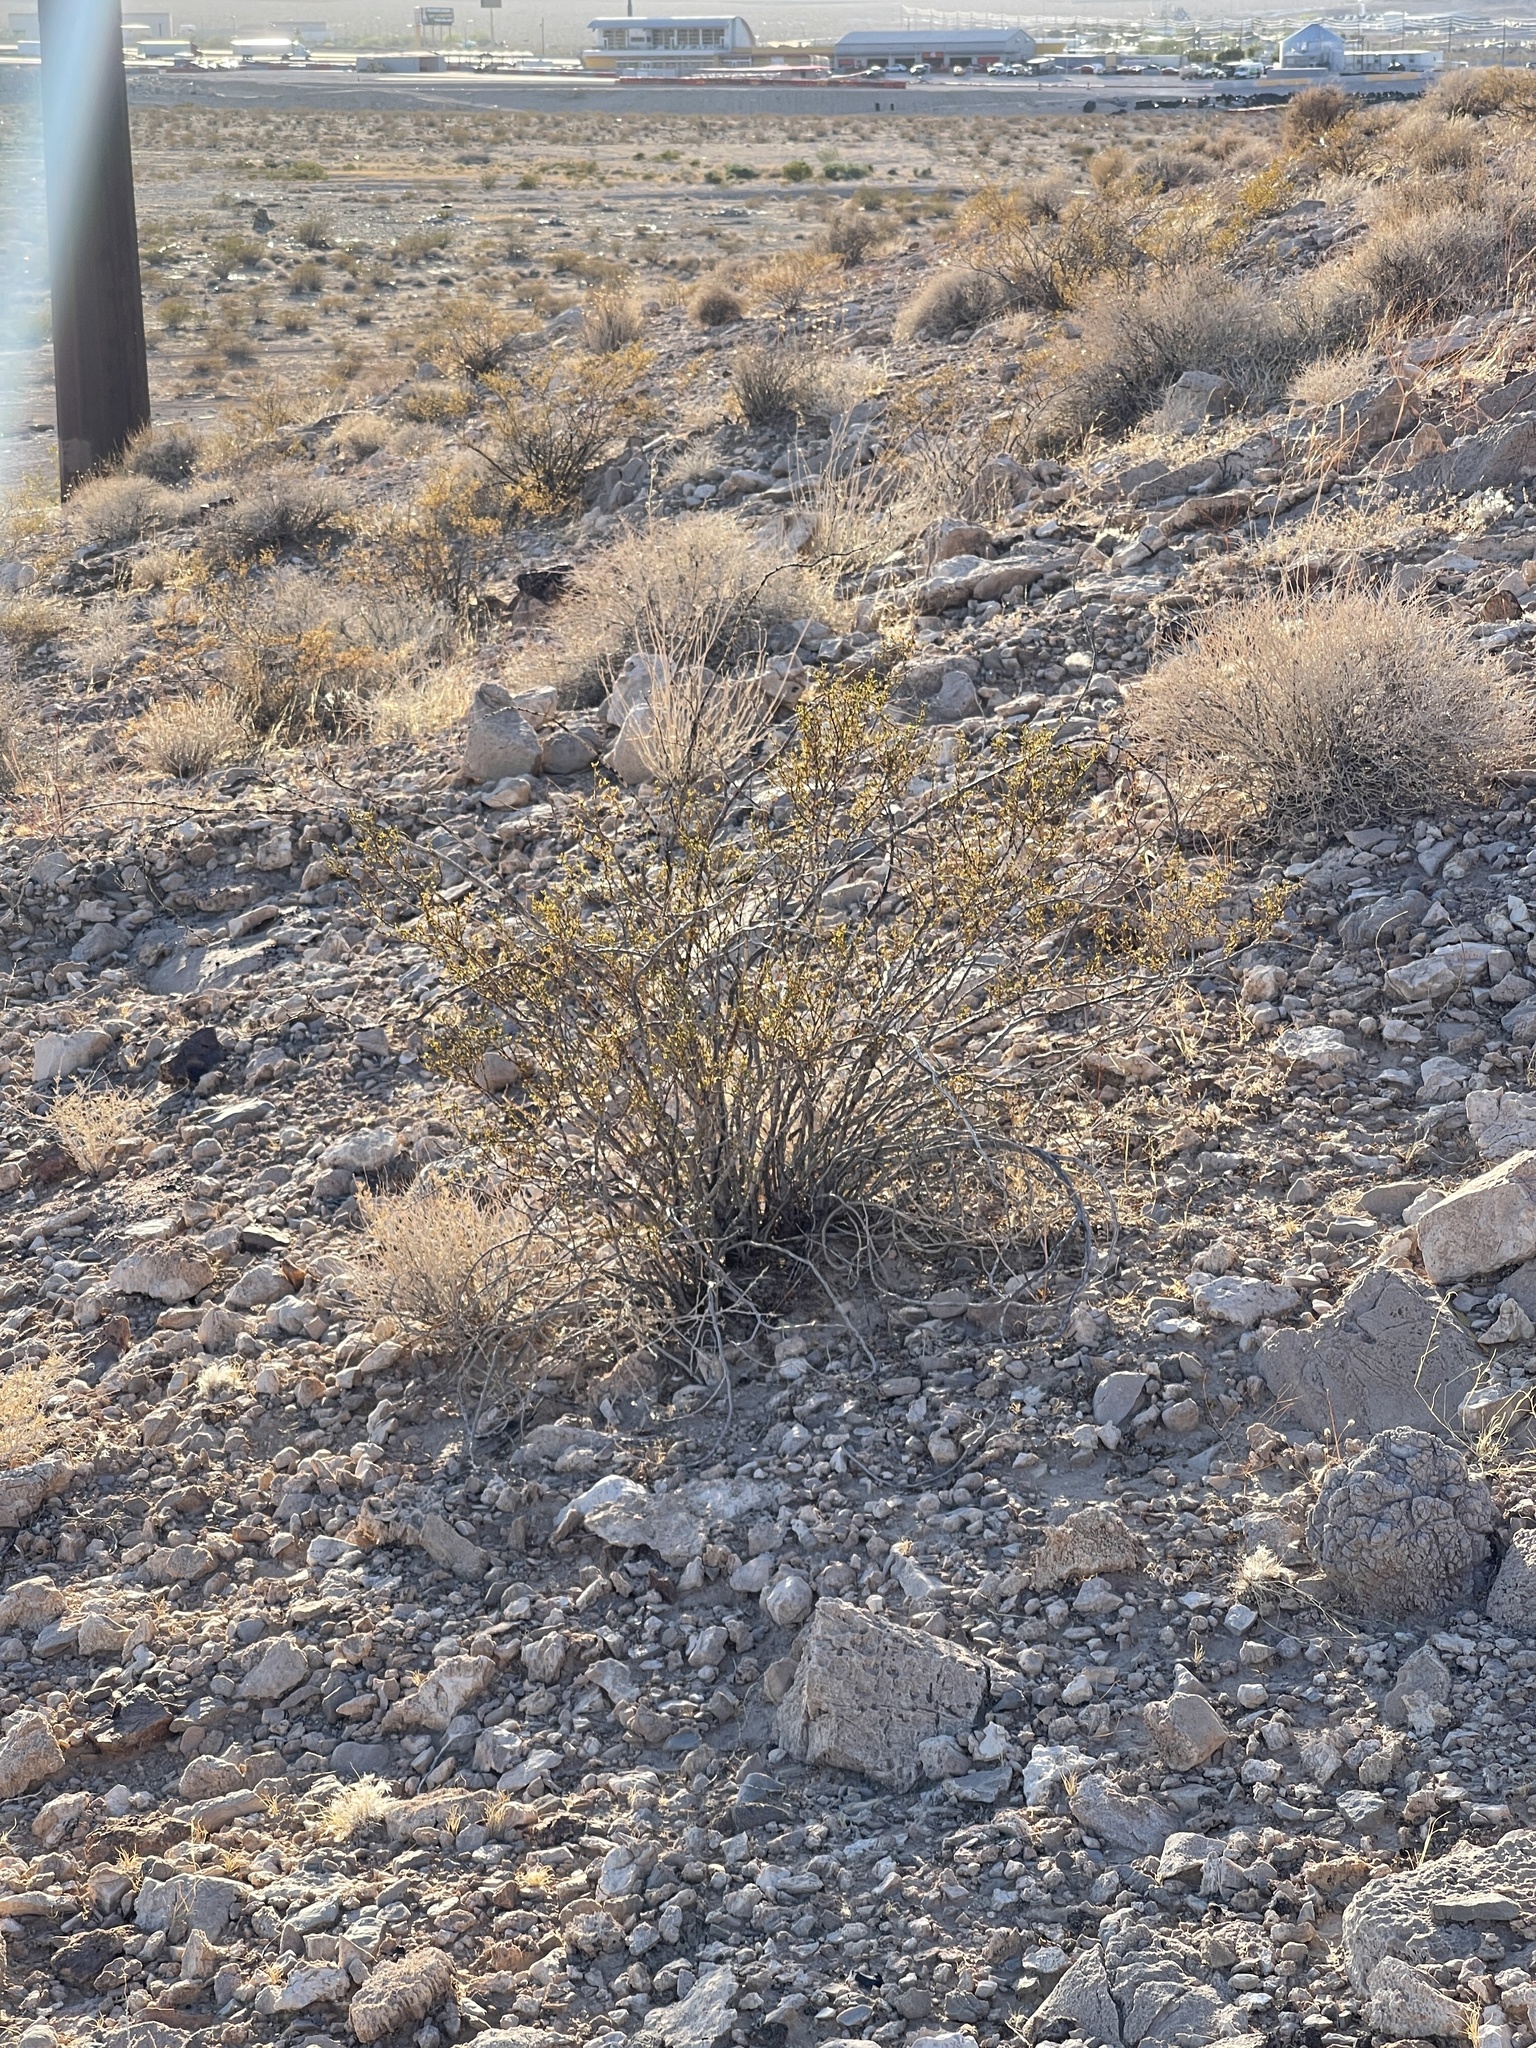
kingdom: Plantae
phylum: Tracheophyta
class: Magnoliopsida
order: Zygophyllales
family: Zygophyllaceae
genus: Larrea
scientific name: Larrea tridentata
